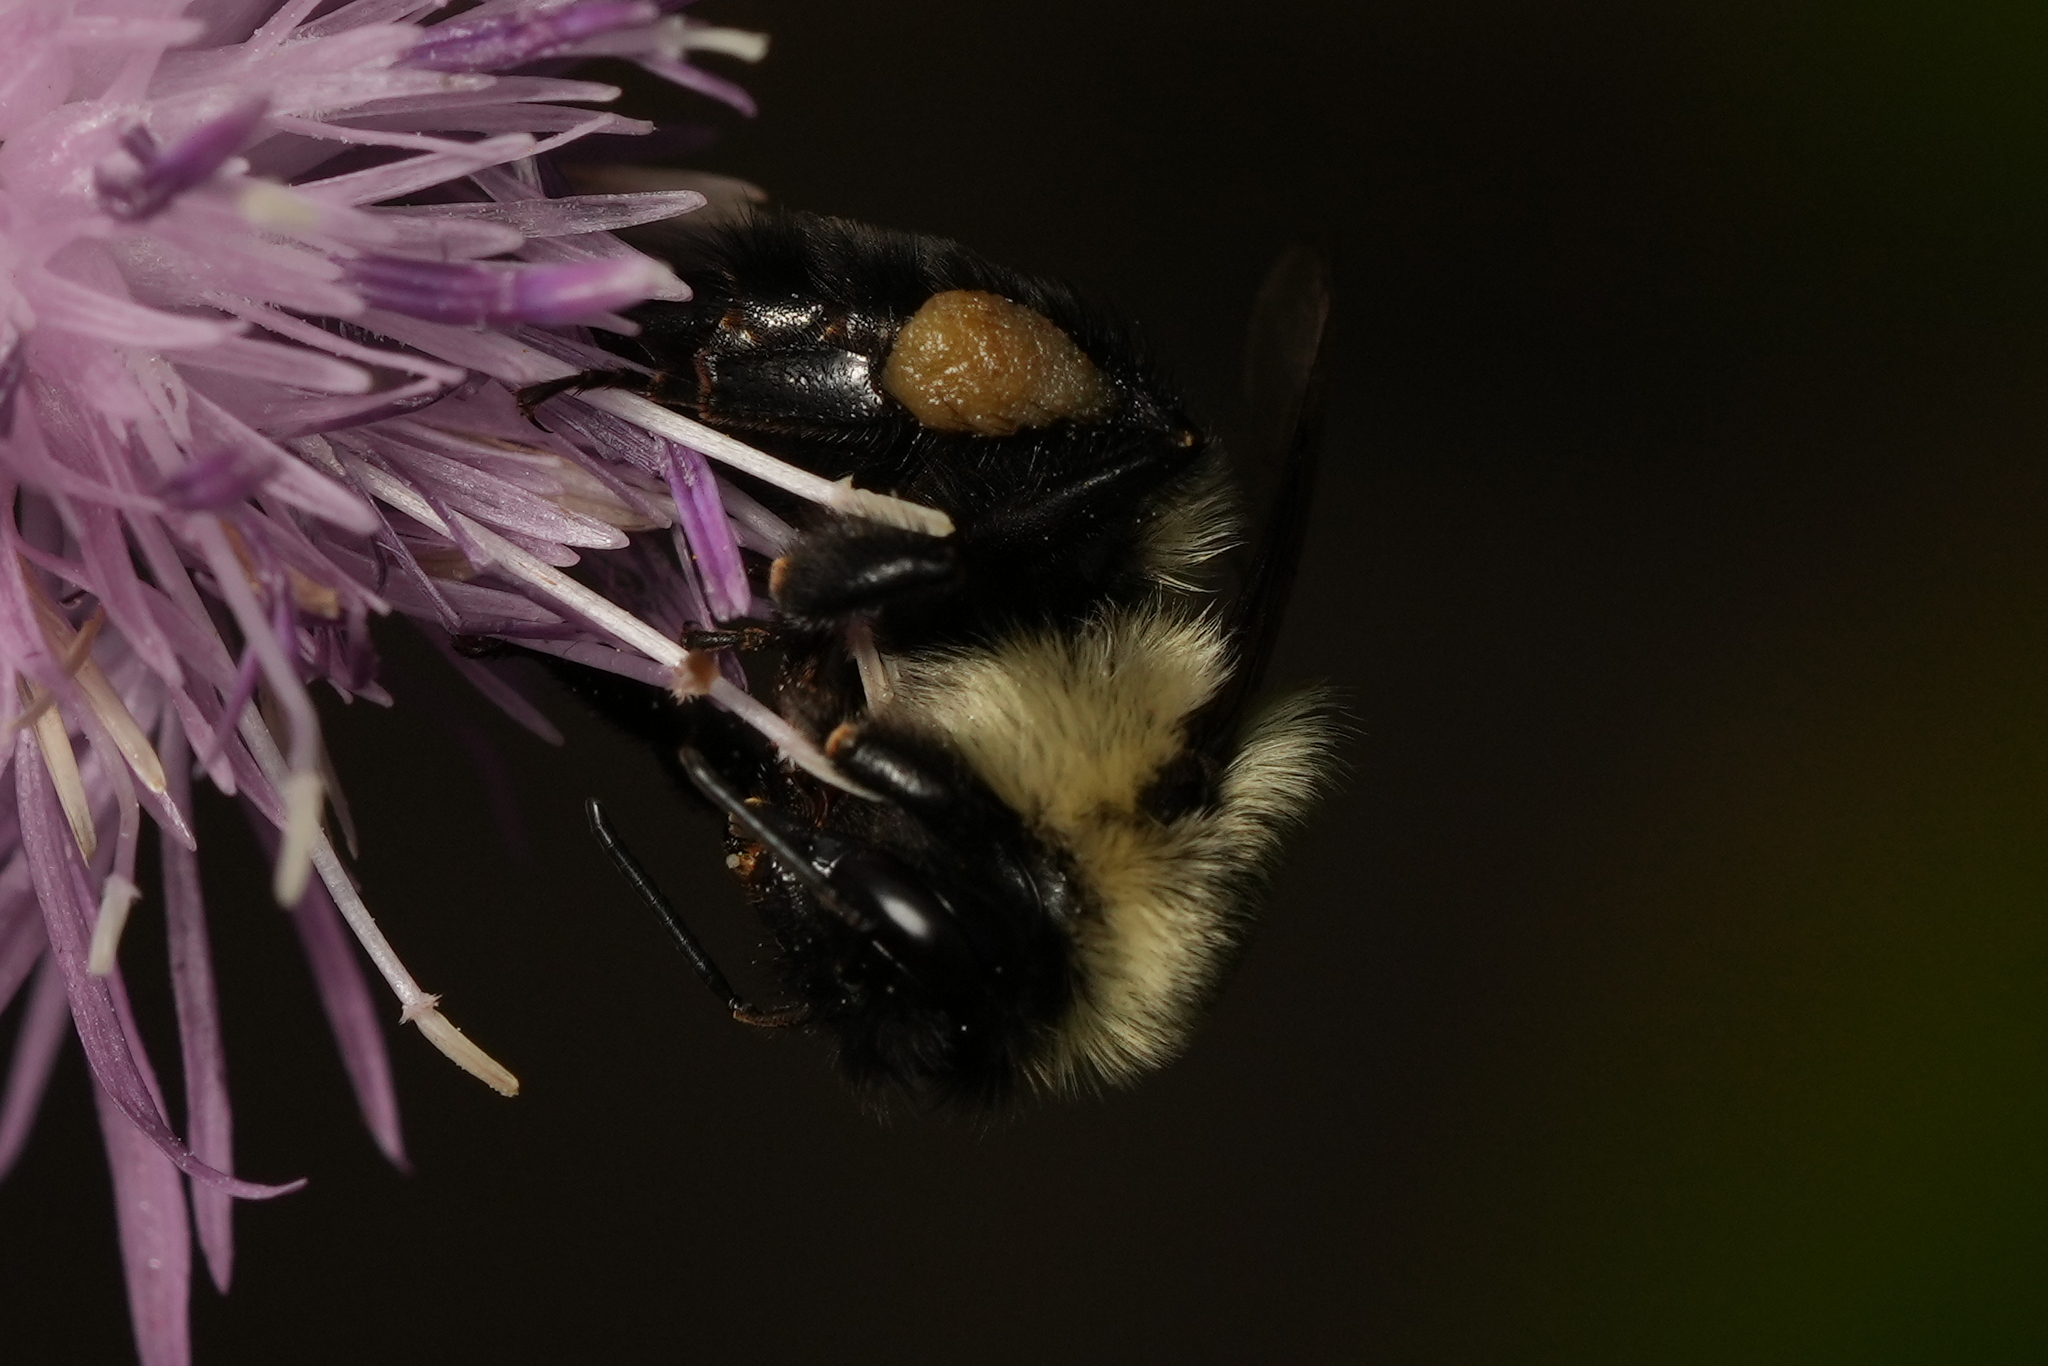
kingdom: Animalia
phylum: Arthropoda
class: Insecta
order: Hymenoptera
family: Apidae
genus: Bombus
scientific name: Bombus
